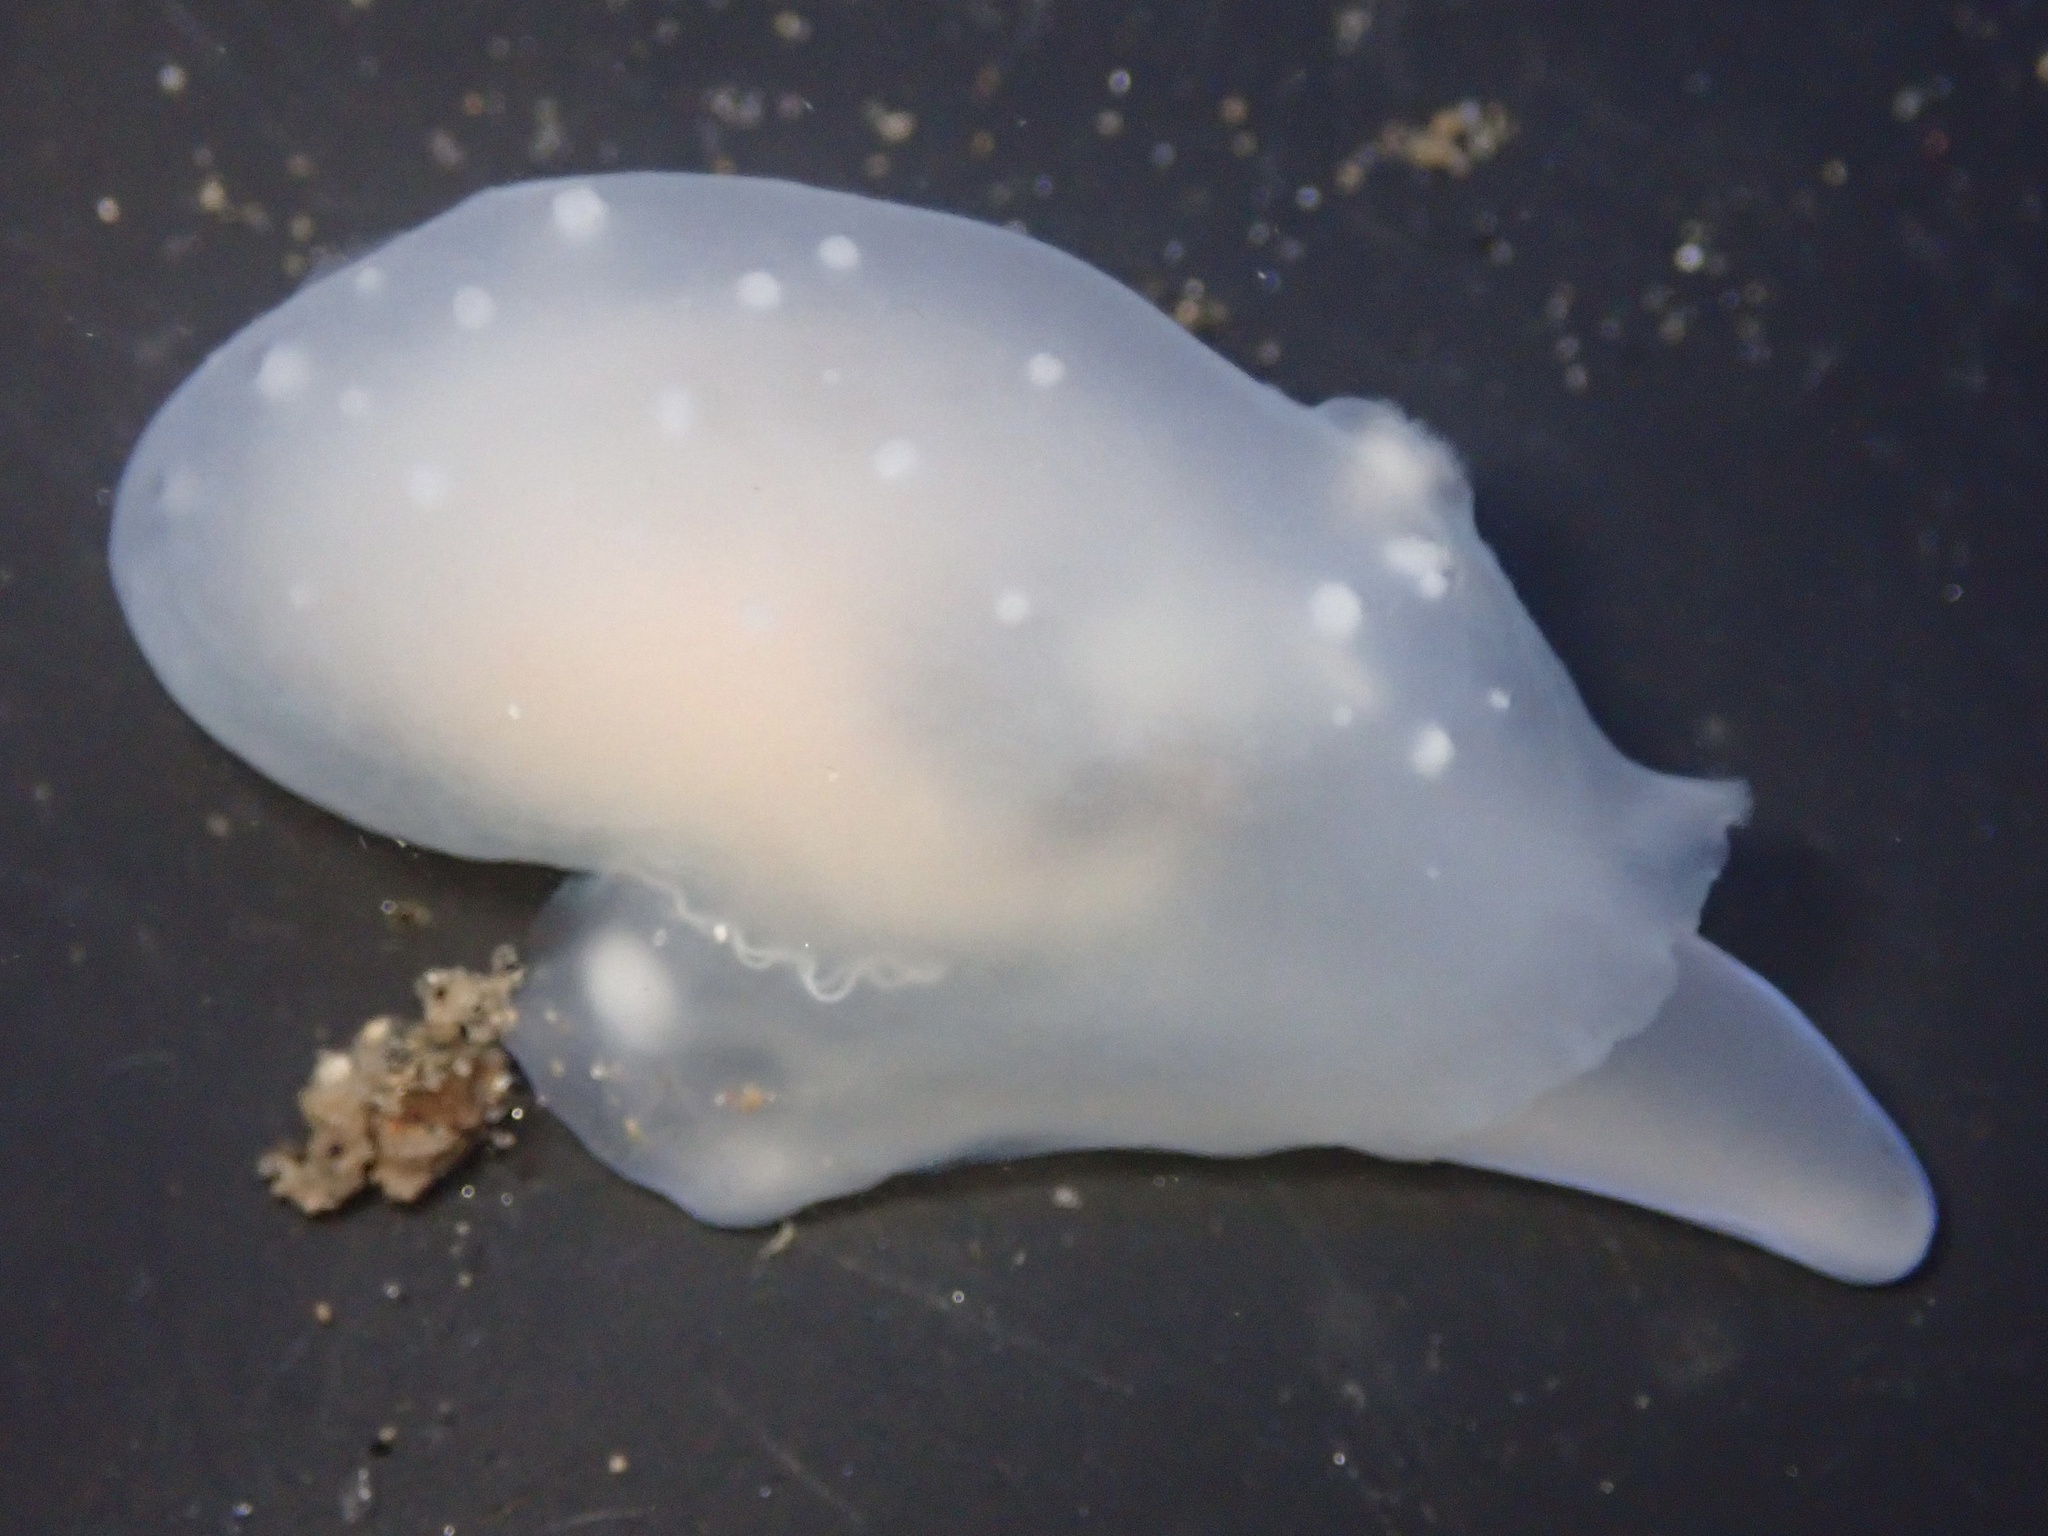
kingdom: Animalia
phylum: Mollusca
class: Bivalvia
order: Galeommatida
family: Galeommatidae
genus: Chlamydoconcha
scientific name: Chlamydoconcha orcutti
